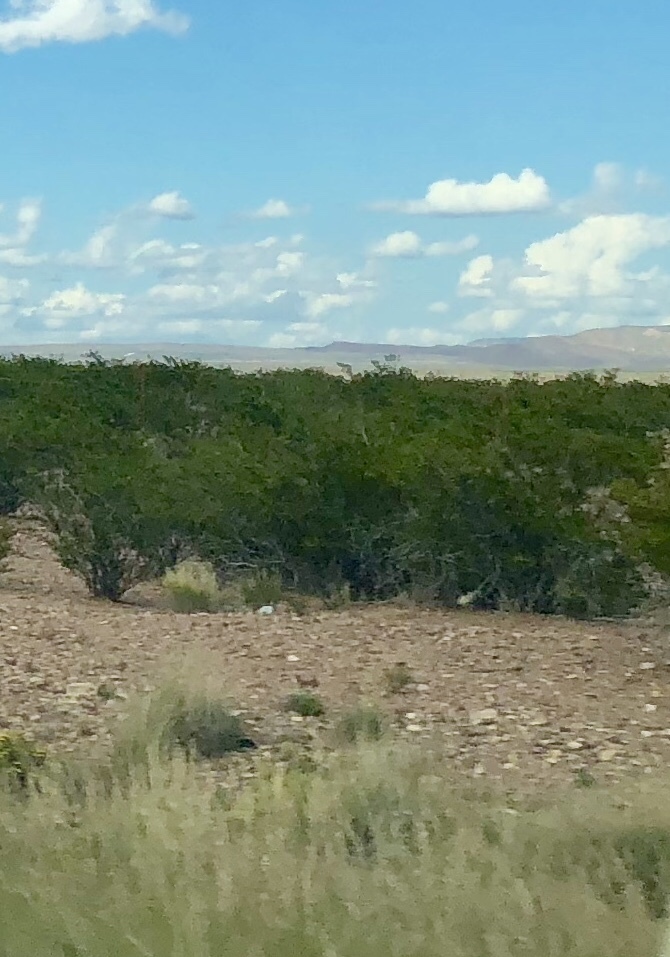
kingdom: Plantae
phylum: Tracheophyta
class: Magnoliopsida
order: Zygophyllales
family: Zygophyllaceae
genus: Larrea
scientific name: Larrea tridentata
